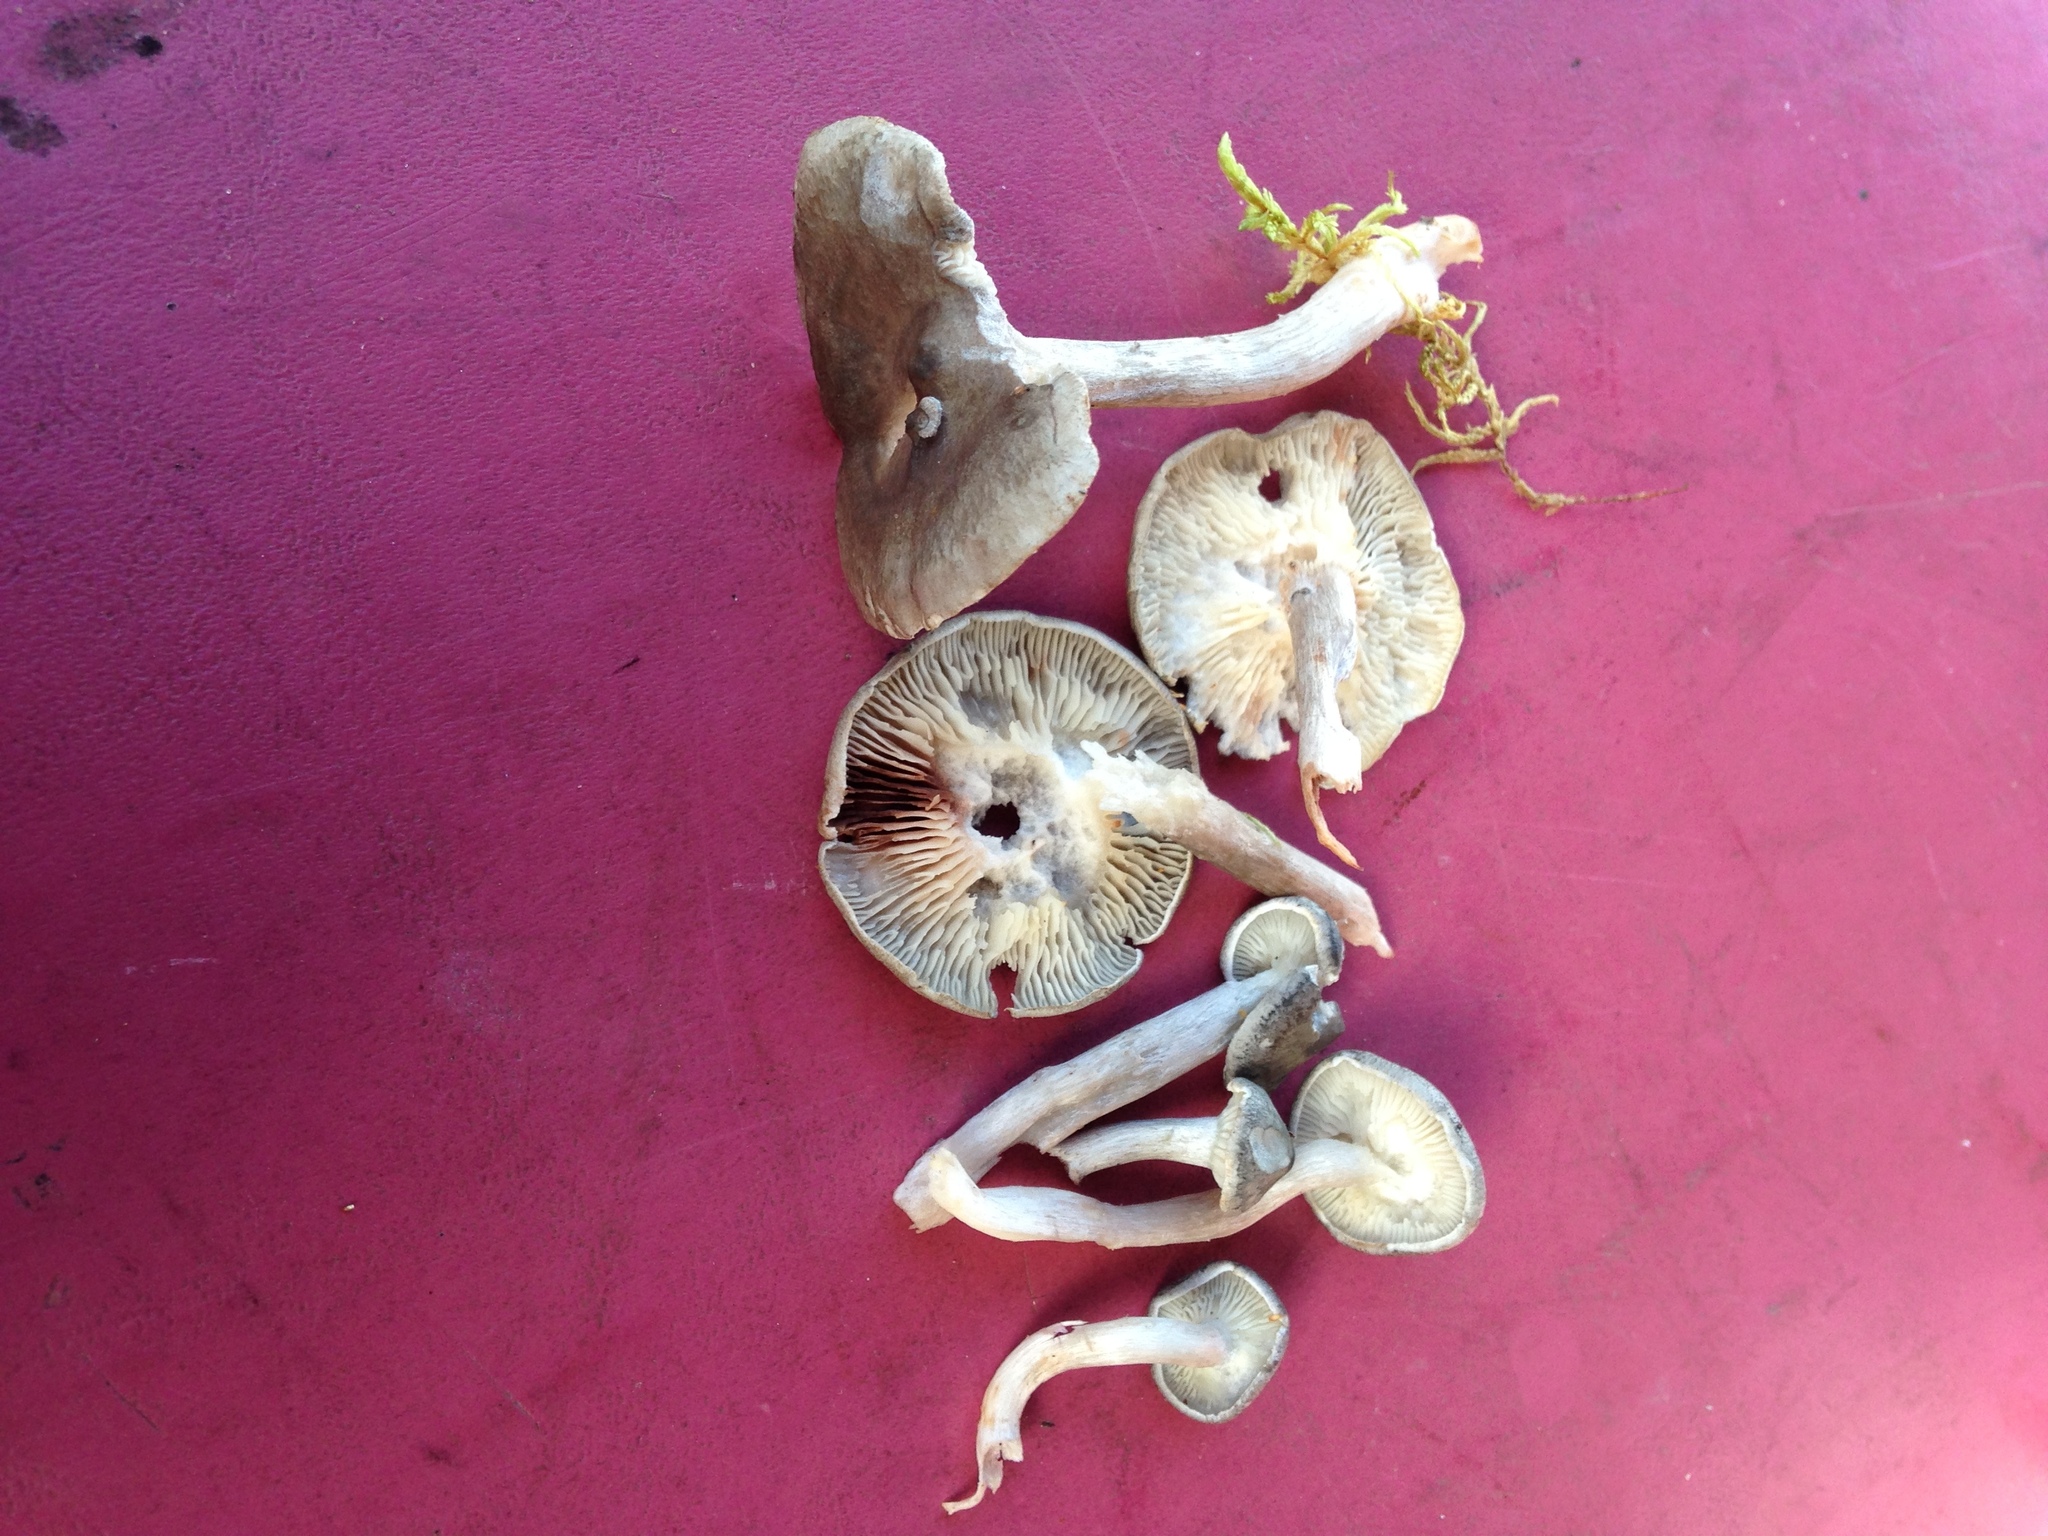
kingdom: Fungi
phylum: Basidiomycota
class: Agaricomycetes
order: Agaricales
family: Hygrophoraceae
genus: Cantharellula
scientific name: Cantharellula umbonata
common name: The humpback
